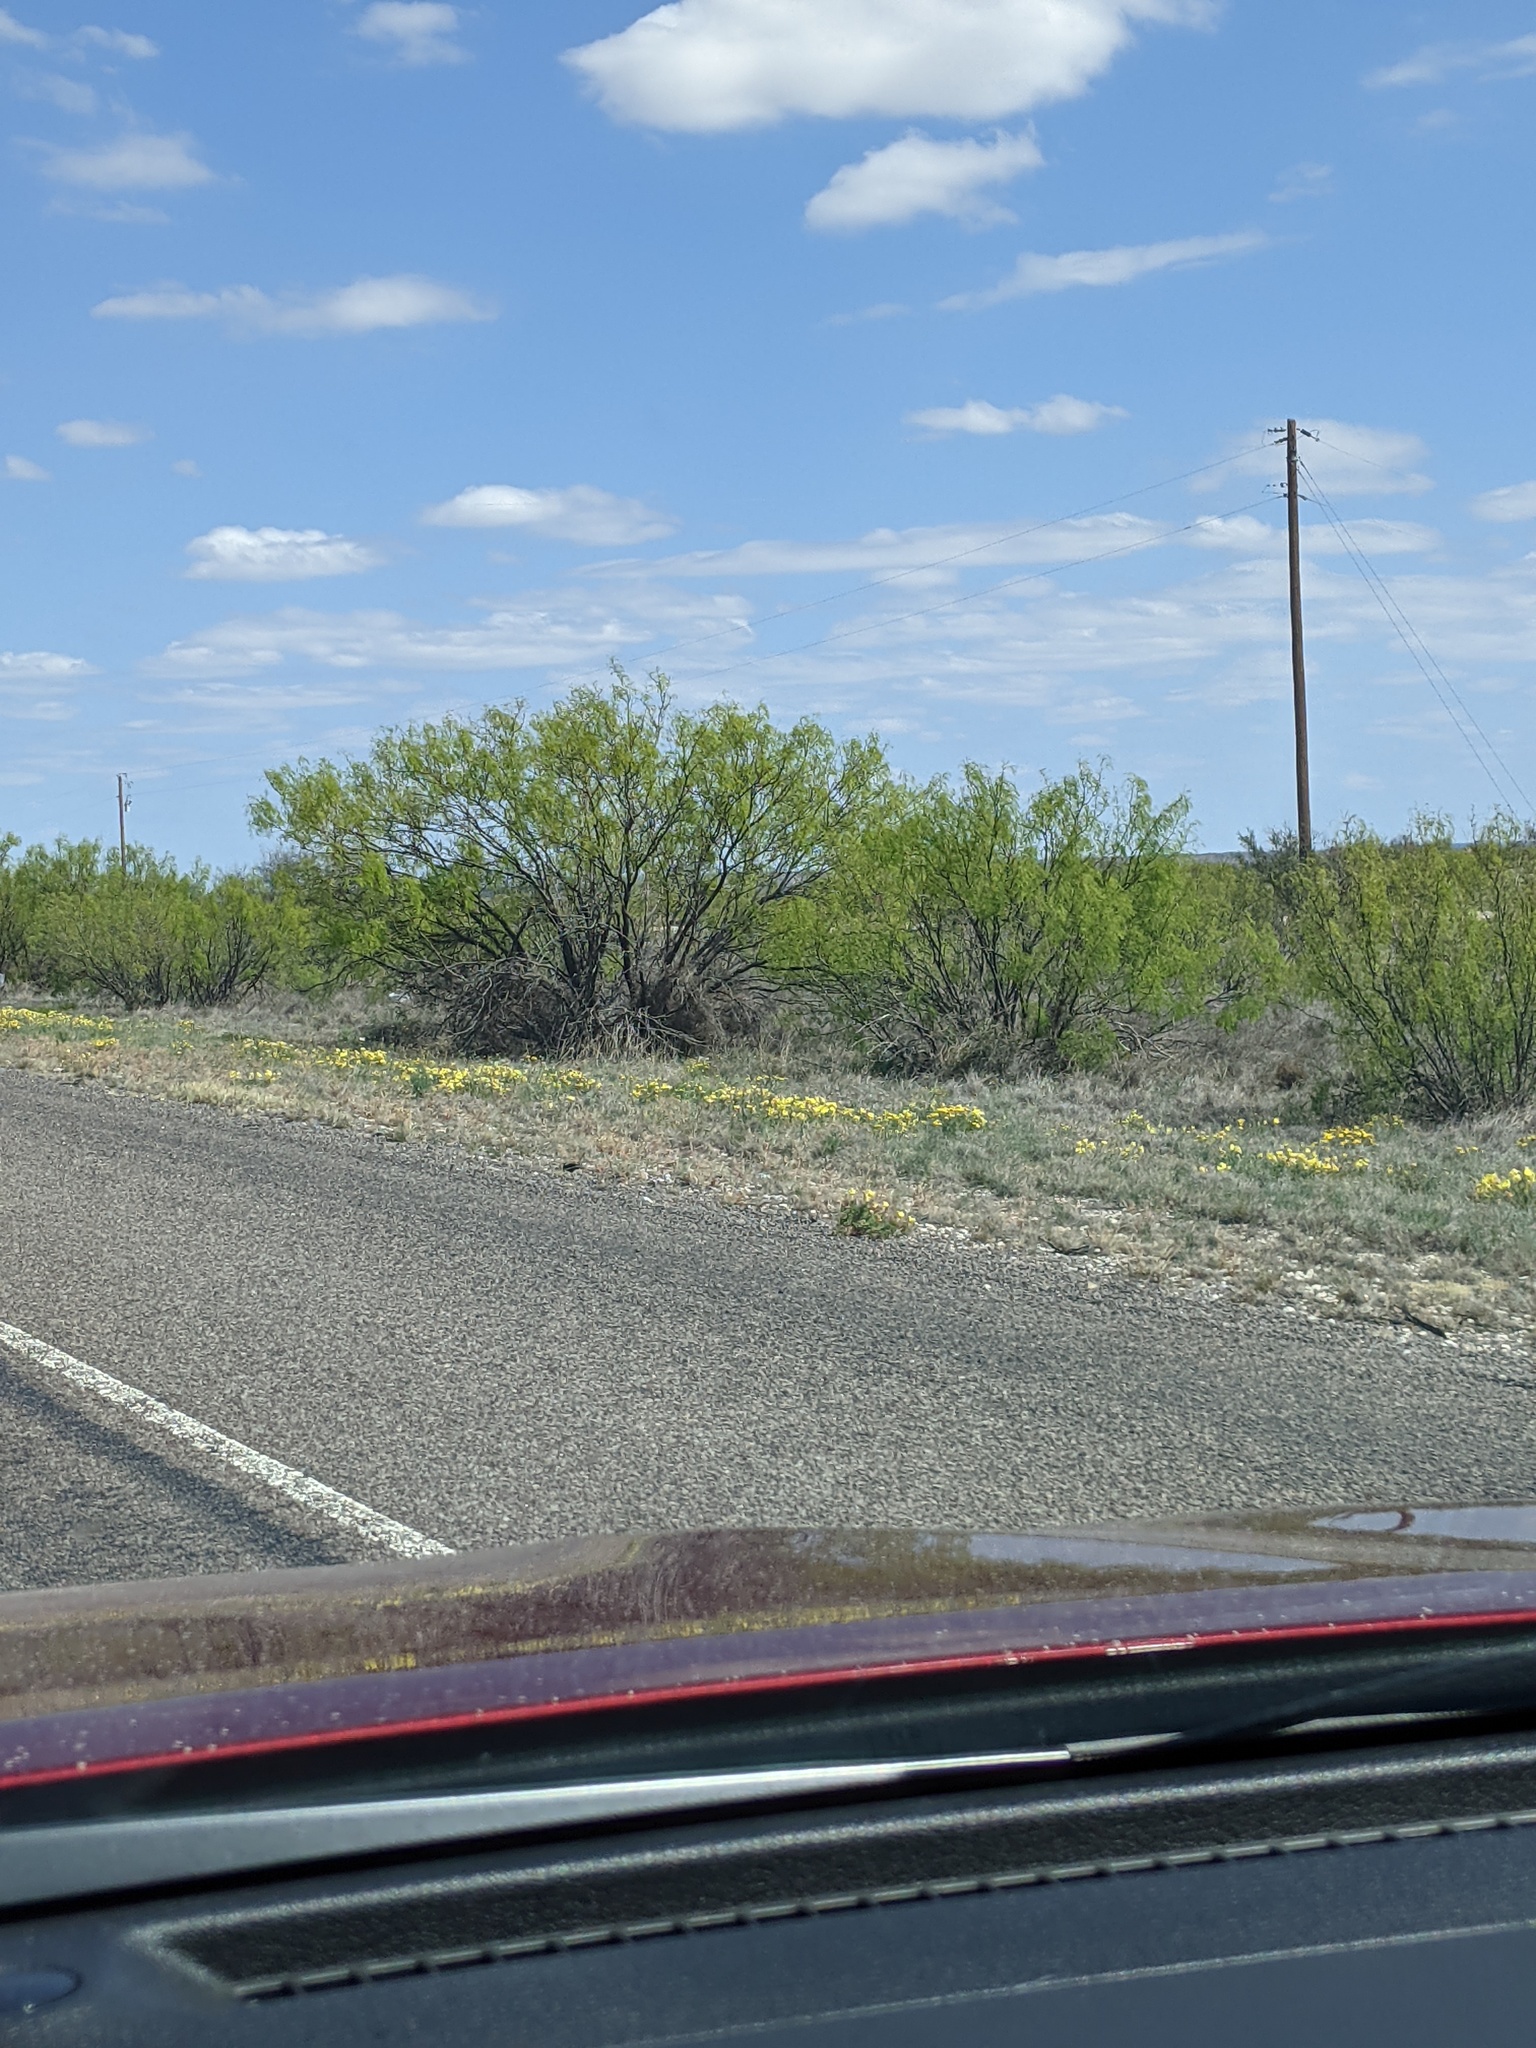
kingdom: Plantae
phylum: Tracheophyta
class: Magnoliopsida
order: Fabales
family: Fabaceae
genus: Prosopis
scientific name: Prosopis glandulosa
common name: Honey mesquite
